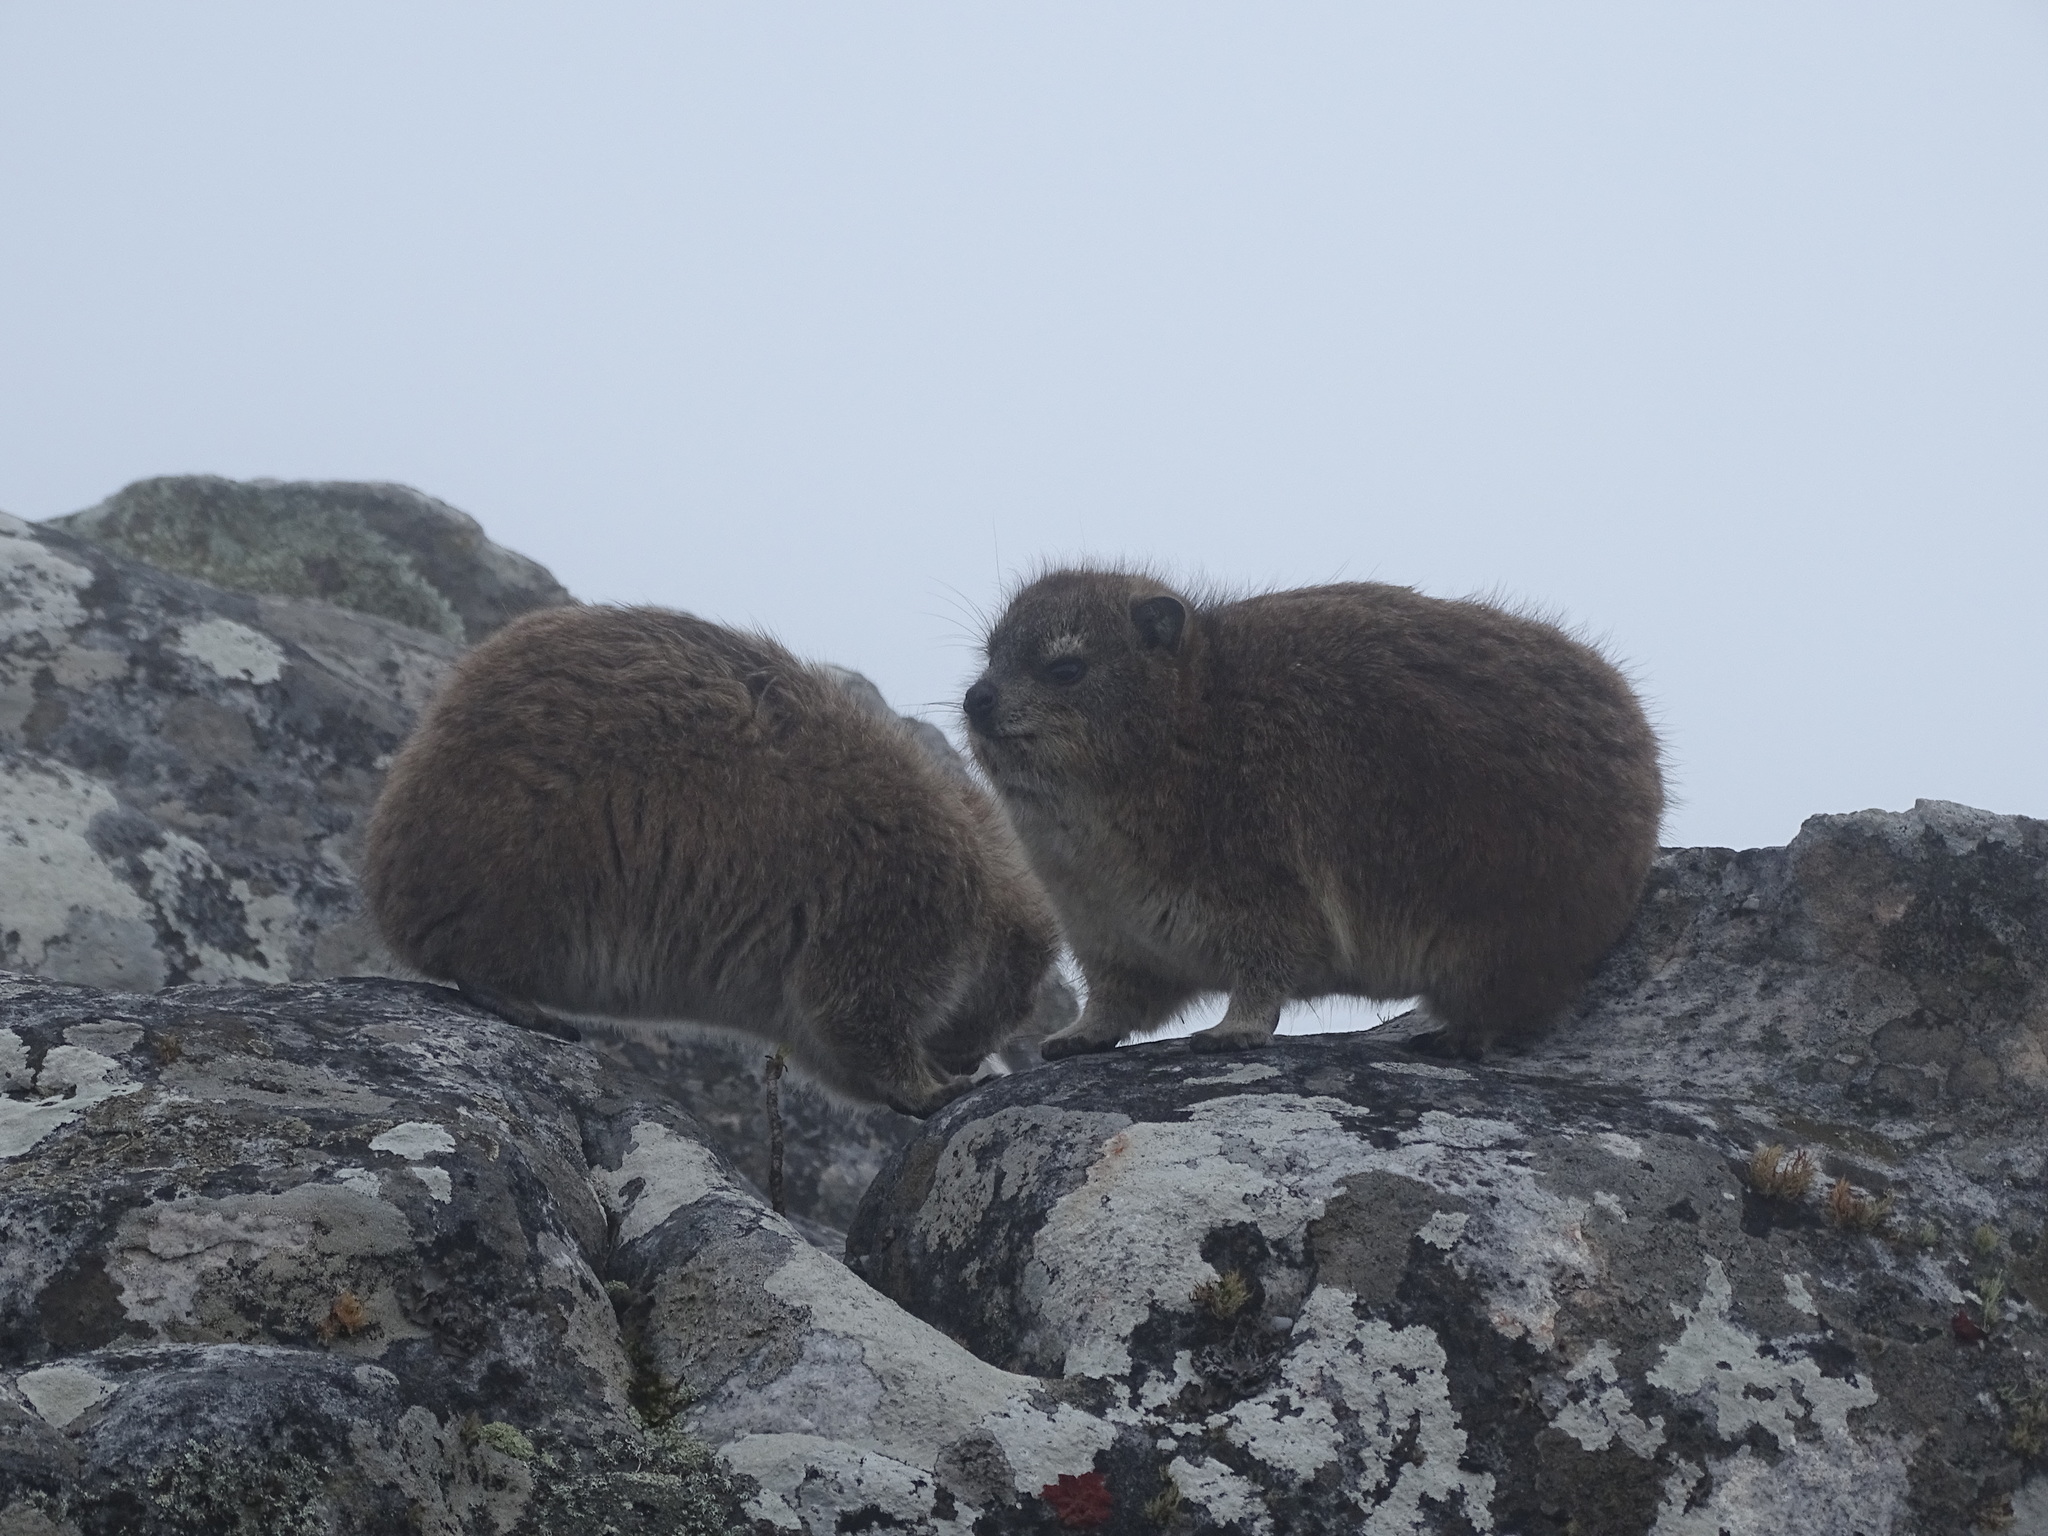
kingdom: Animalia
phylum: Chordata
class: Mammalia
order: Hyracoidea
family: Procaviidae
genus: Procavia
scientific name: Procavia capensis
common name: Rock hyrax
